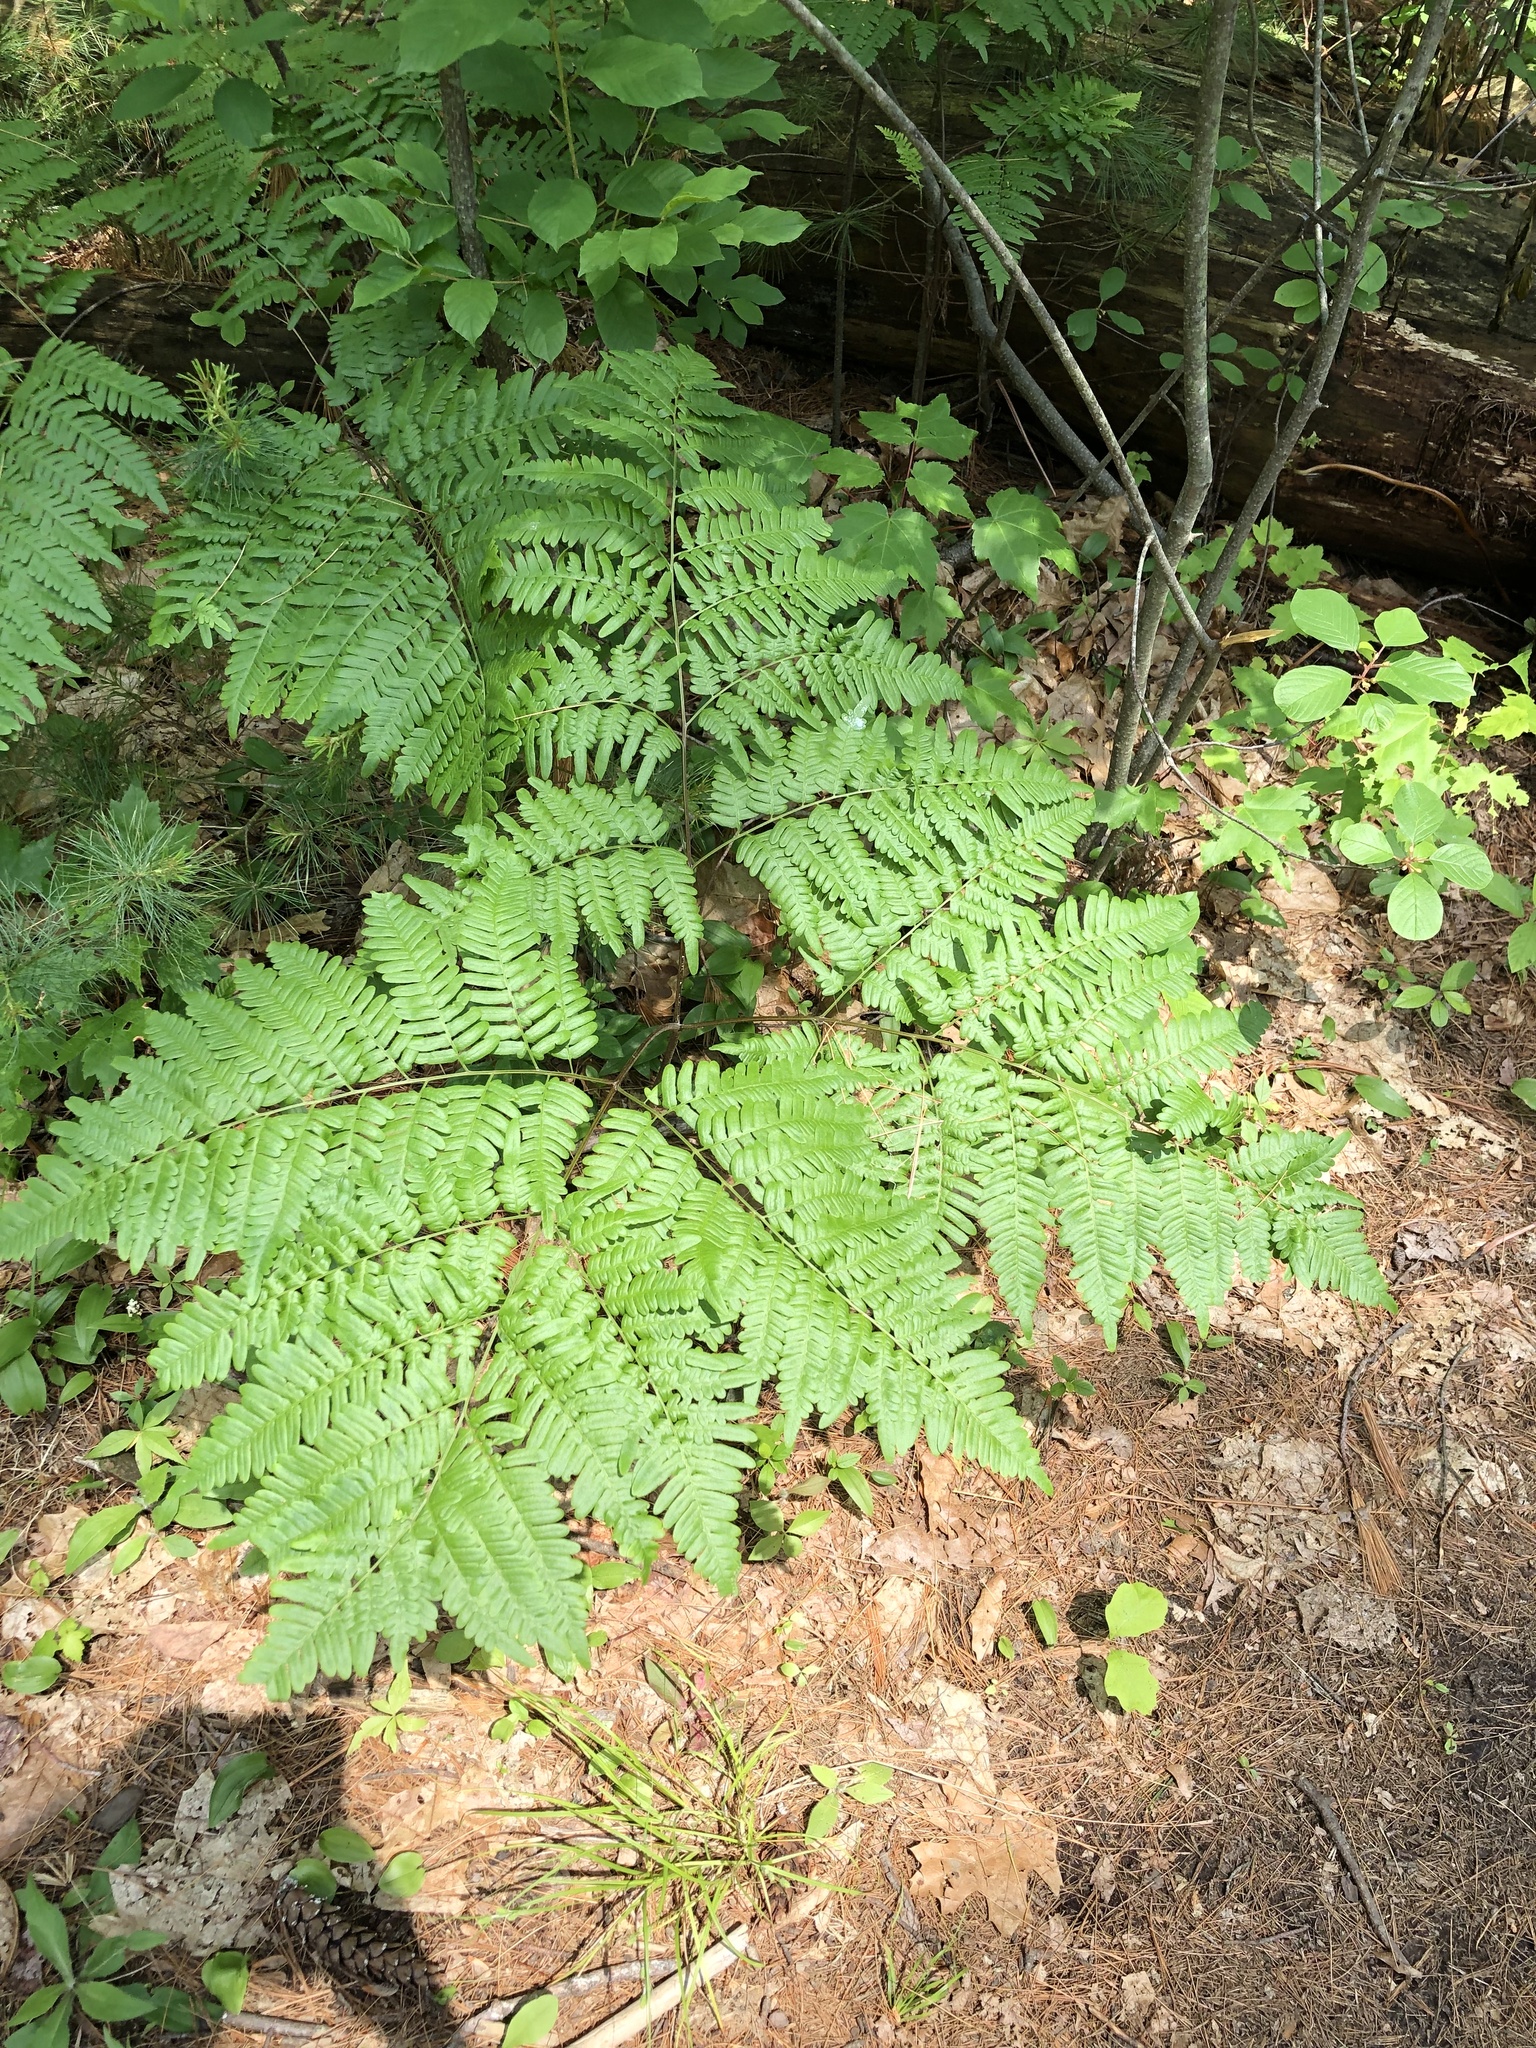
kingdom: Plantae
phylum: Tracheophyta
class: Polypodiopsida
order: Polypodiales
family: Dennstaedtiaceae
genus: Pteridium
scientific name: Pteridium aquilinum
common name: Bracken
